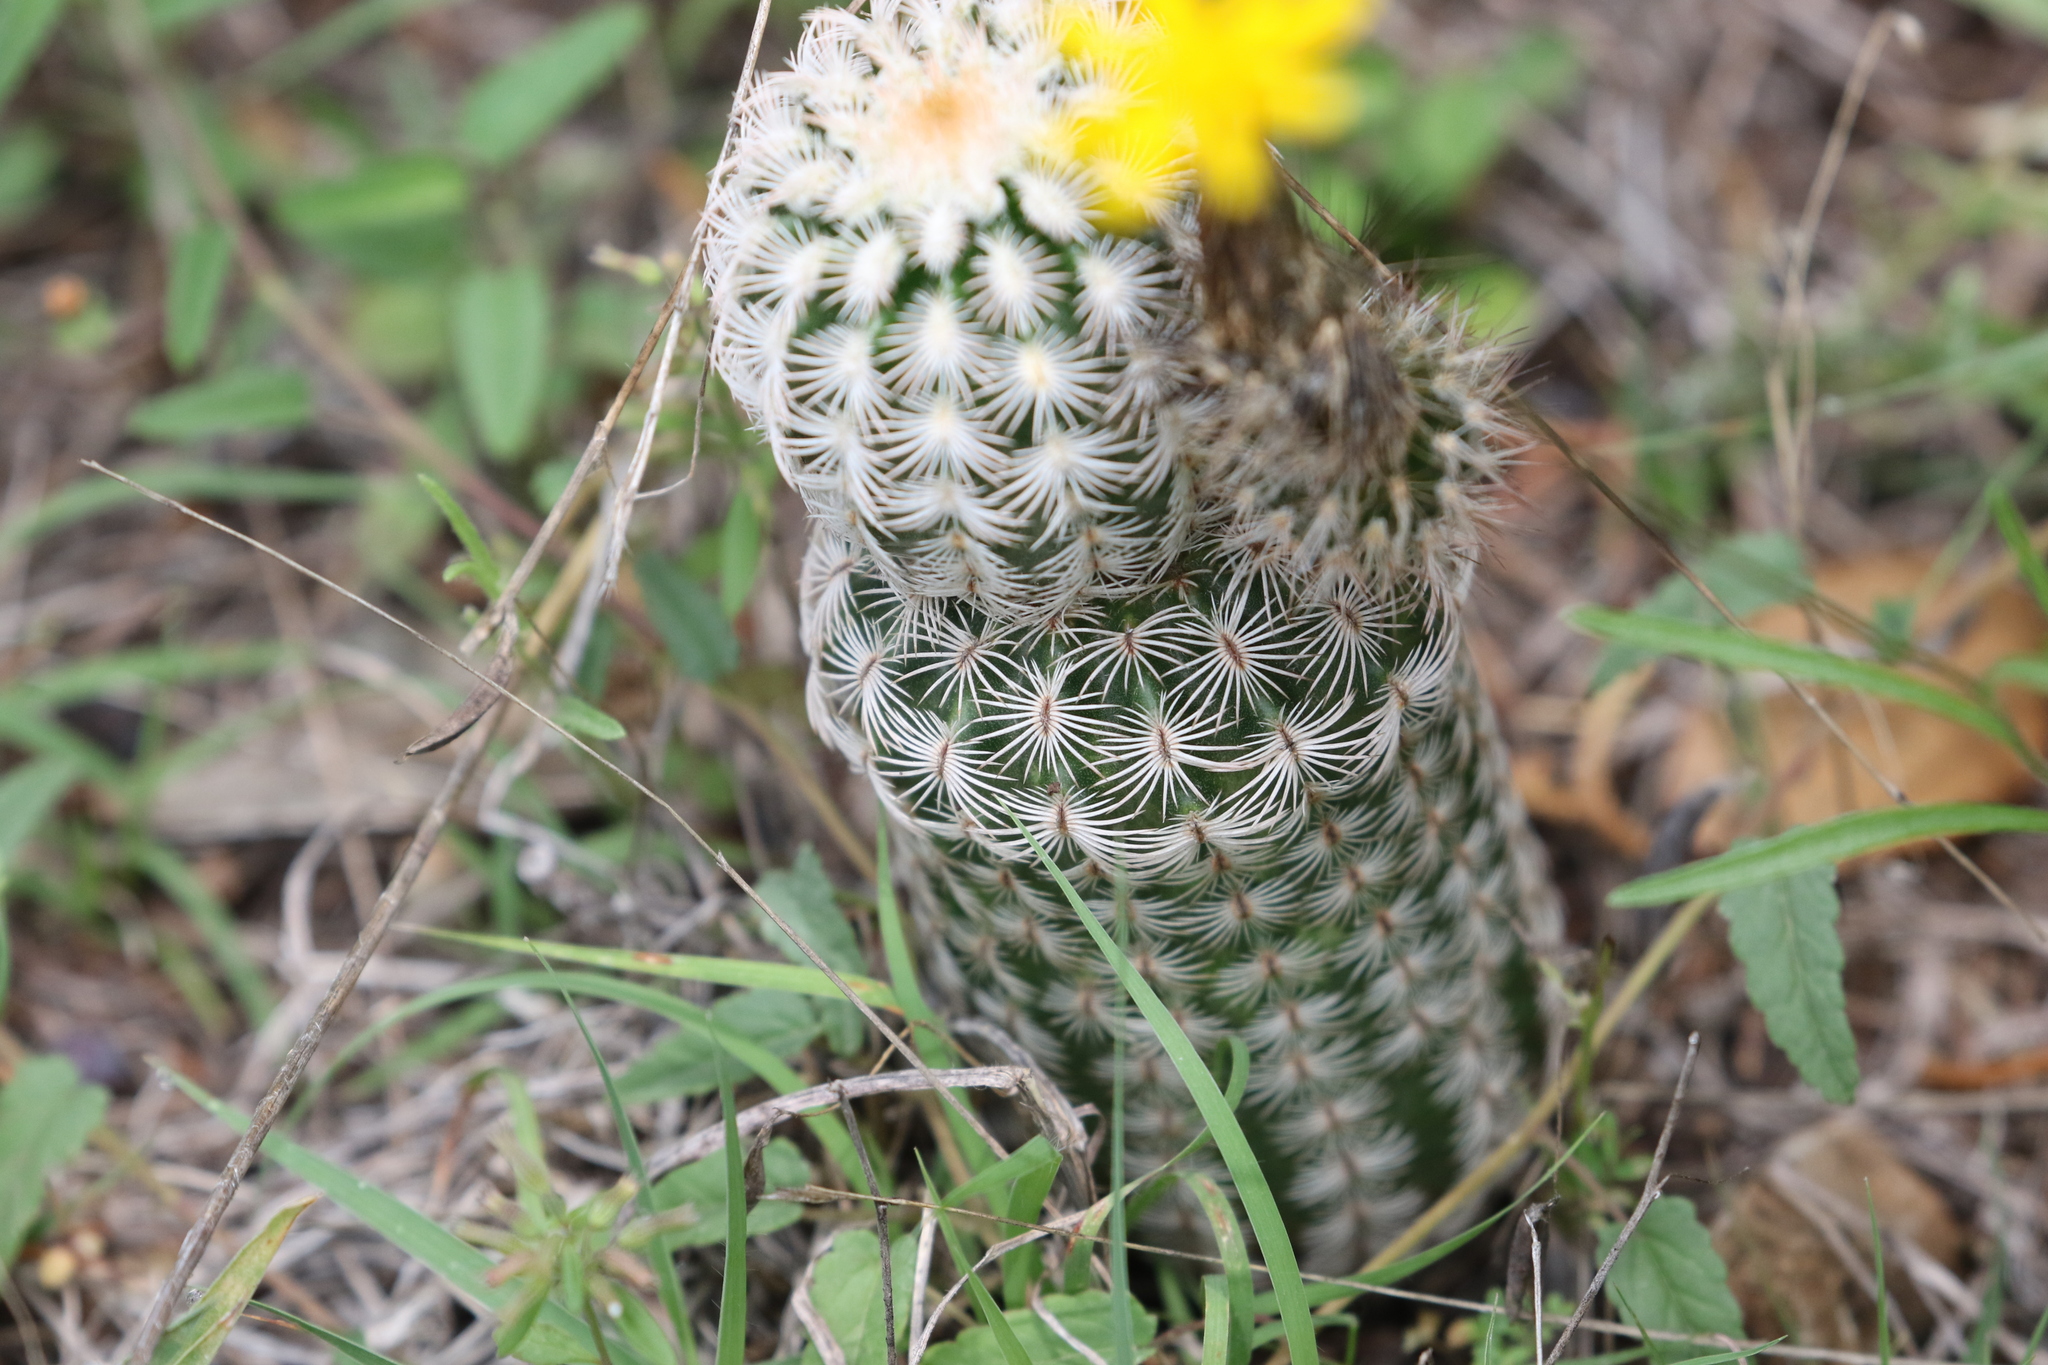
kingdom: Plantae
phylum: Tracheophyta
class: Magnoliopsida
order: Caryophyllales
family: Cactaceae
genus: Echinocereus
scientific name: Echinocereus reichenbachii
